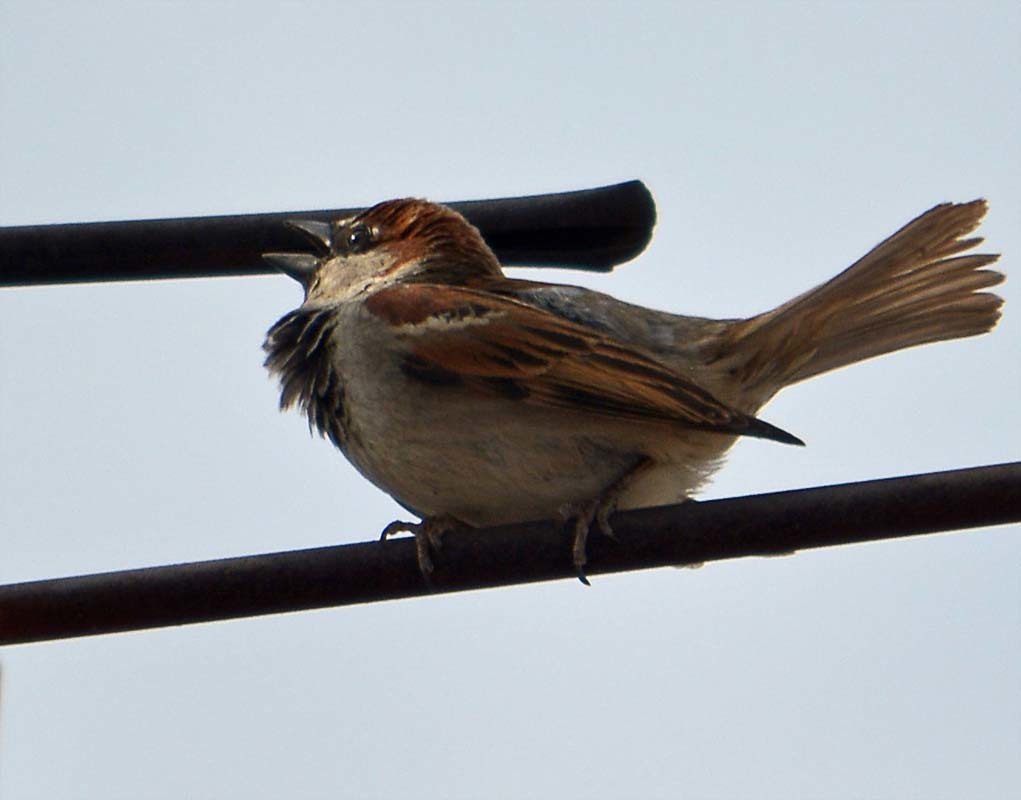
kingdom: Animalia
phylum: Chordata
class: Aves
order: Passeriformes
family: Passeridae
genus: Passer
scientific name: Passer domesticus
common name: House sparrow
